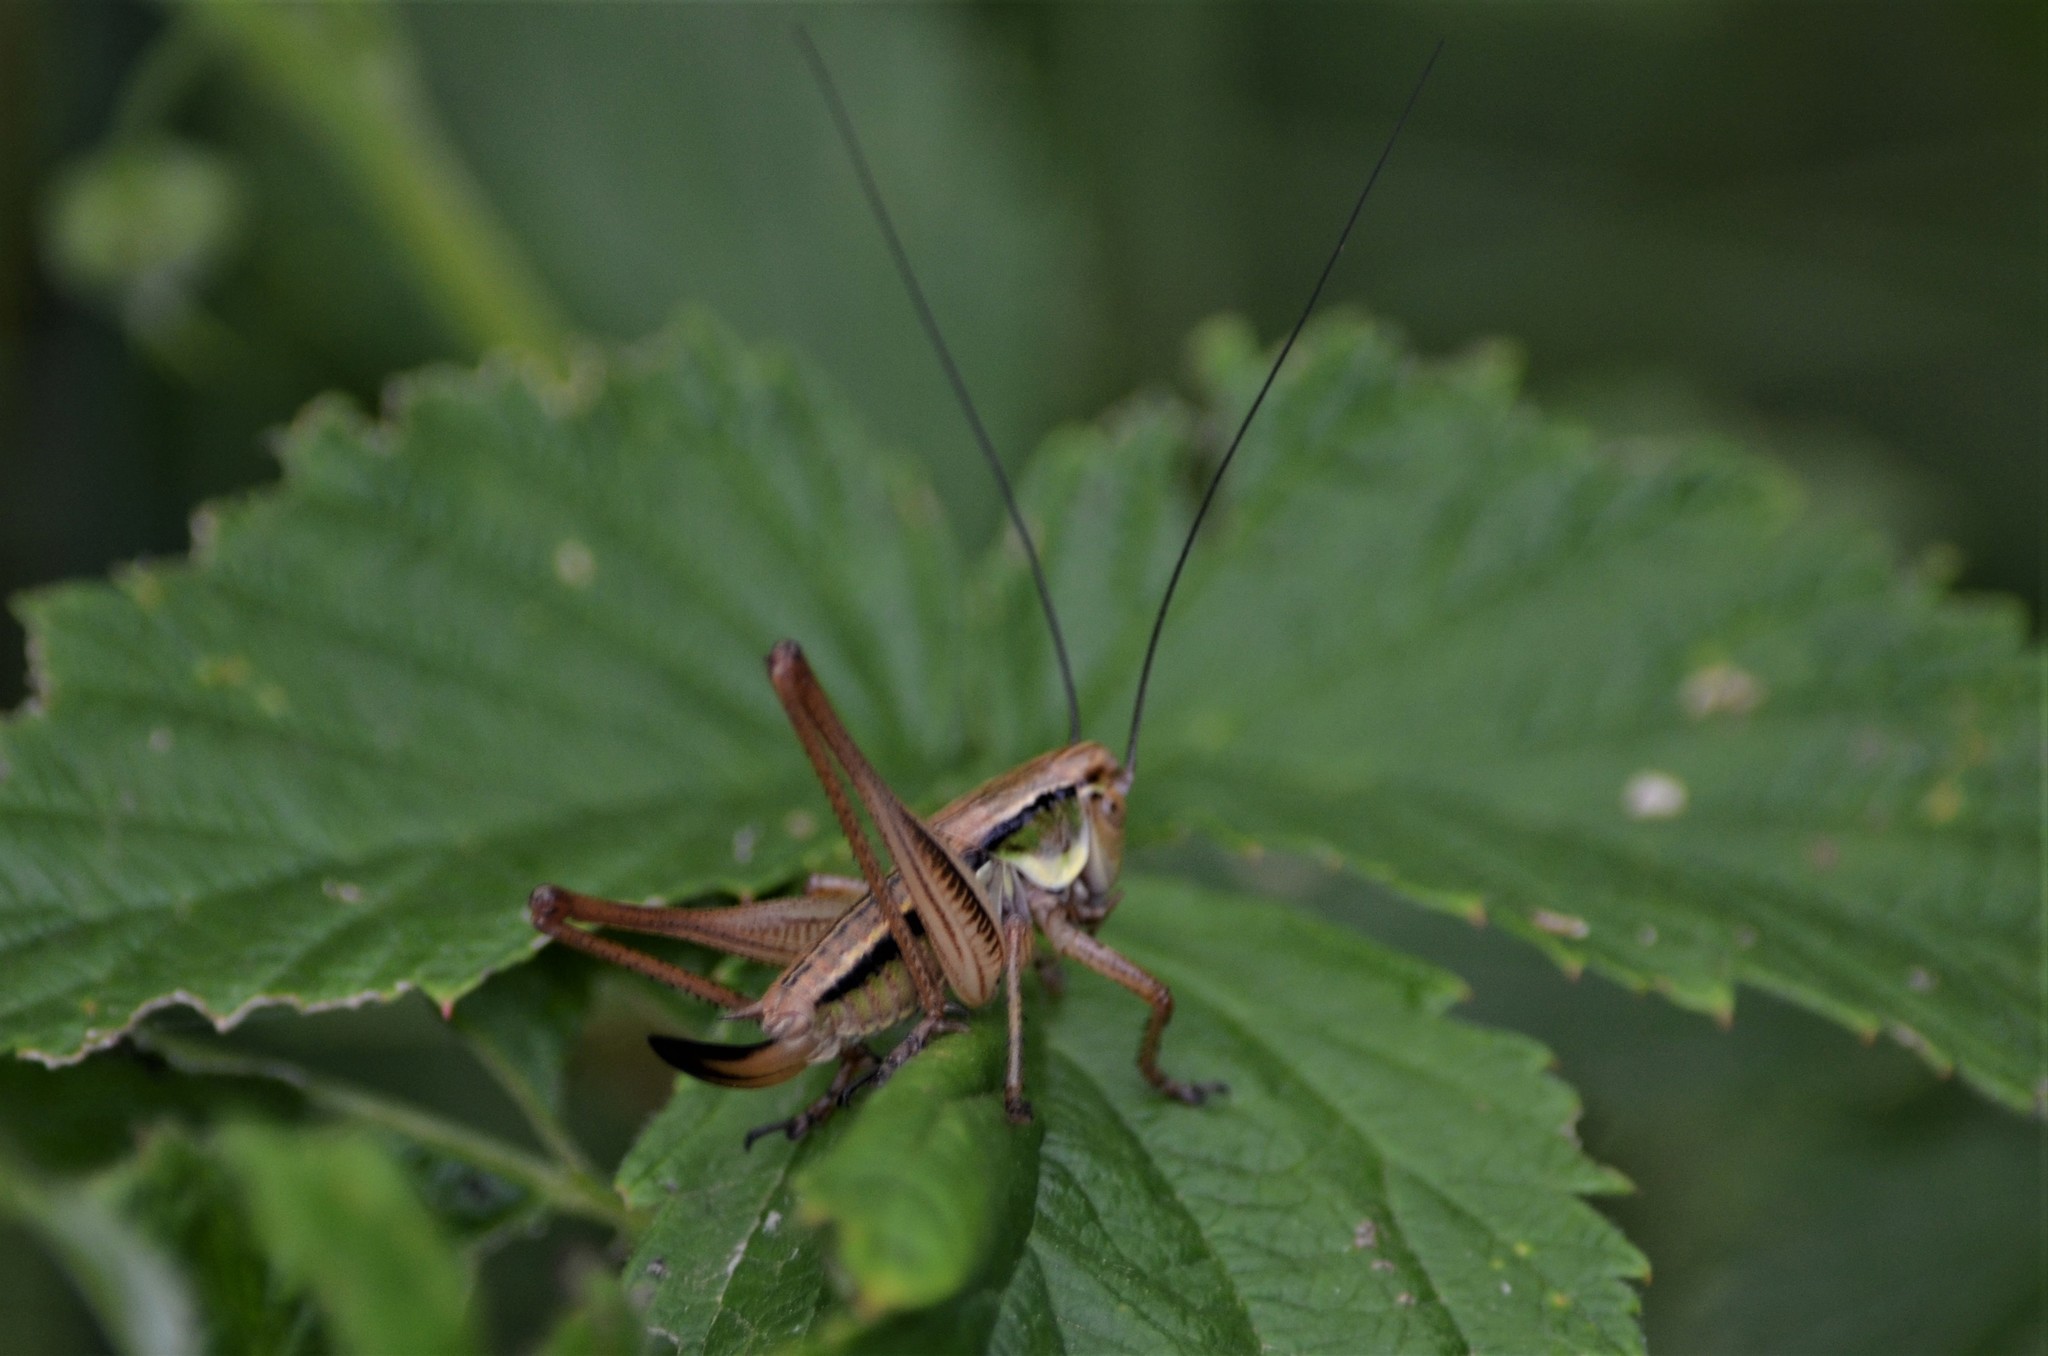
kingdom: Animalia
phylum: Arthropoda
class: Insecta
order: Orthoptera
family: Tettigoniidae
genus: Roeseliana
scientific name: Roeseliana roeselii
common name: Roesel's bush cricket
